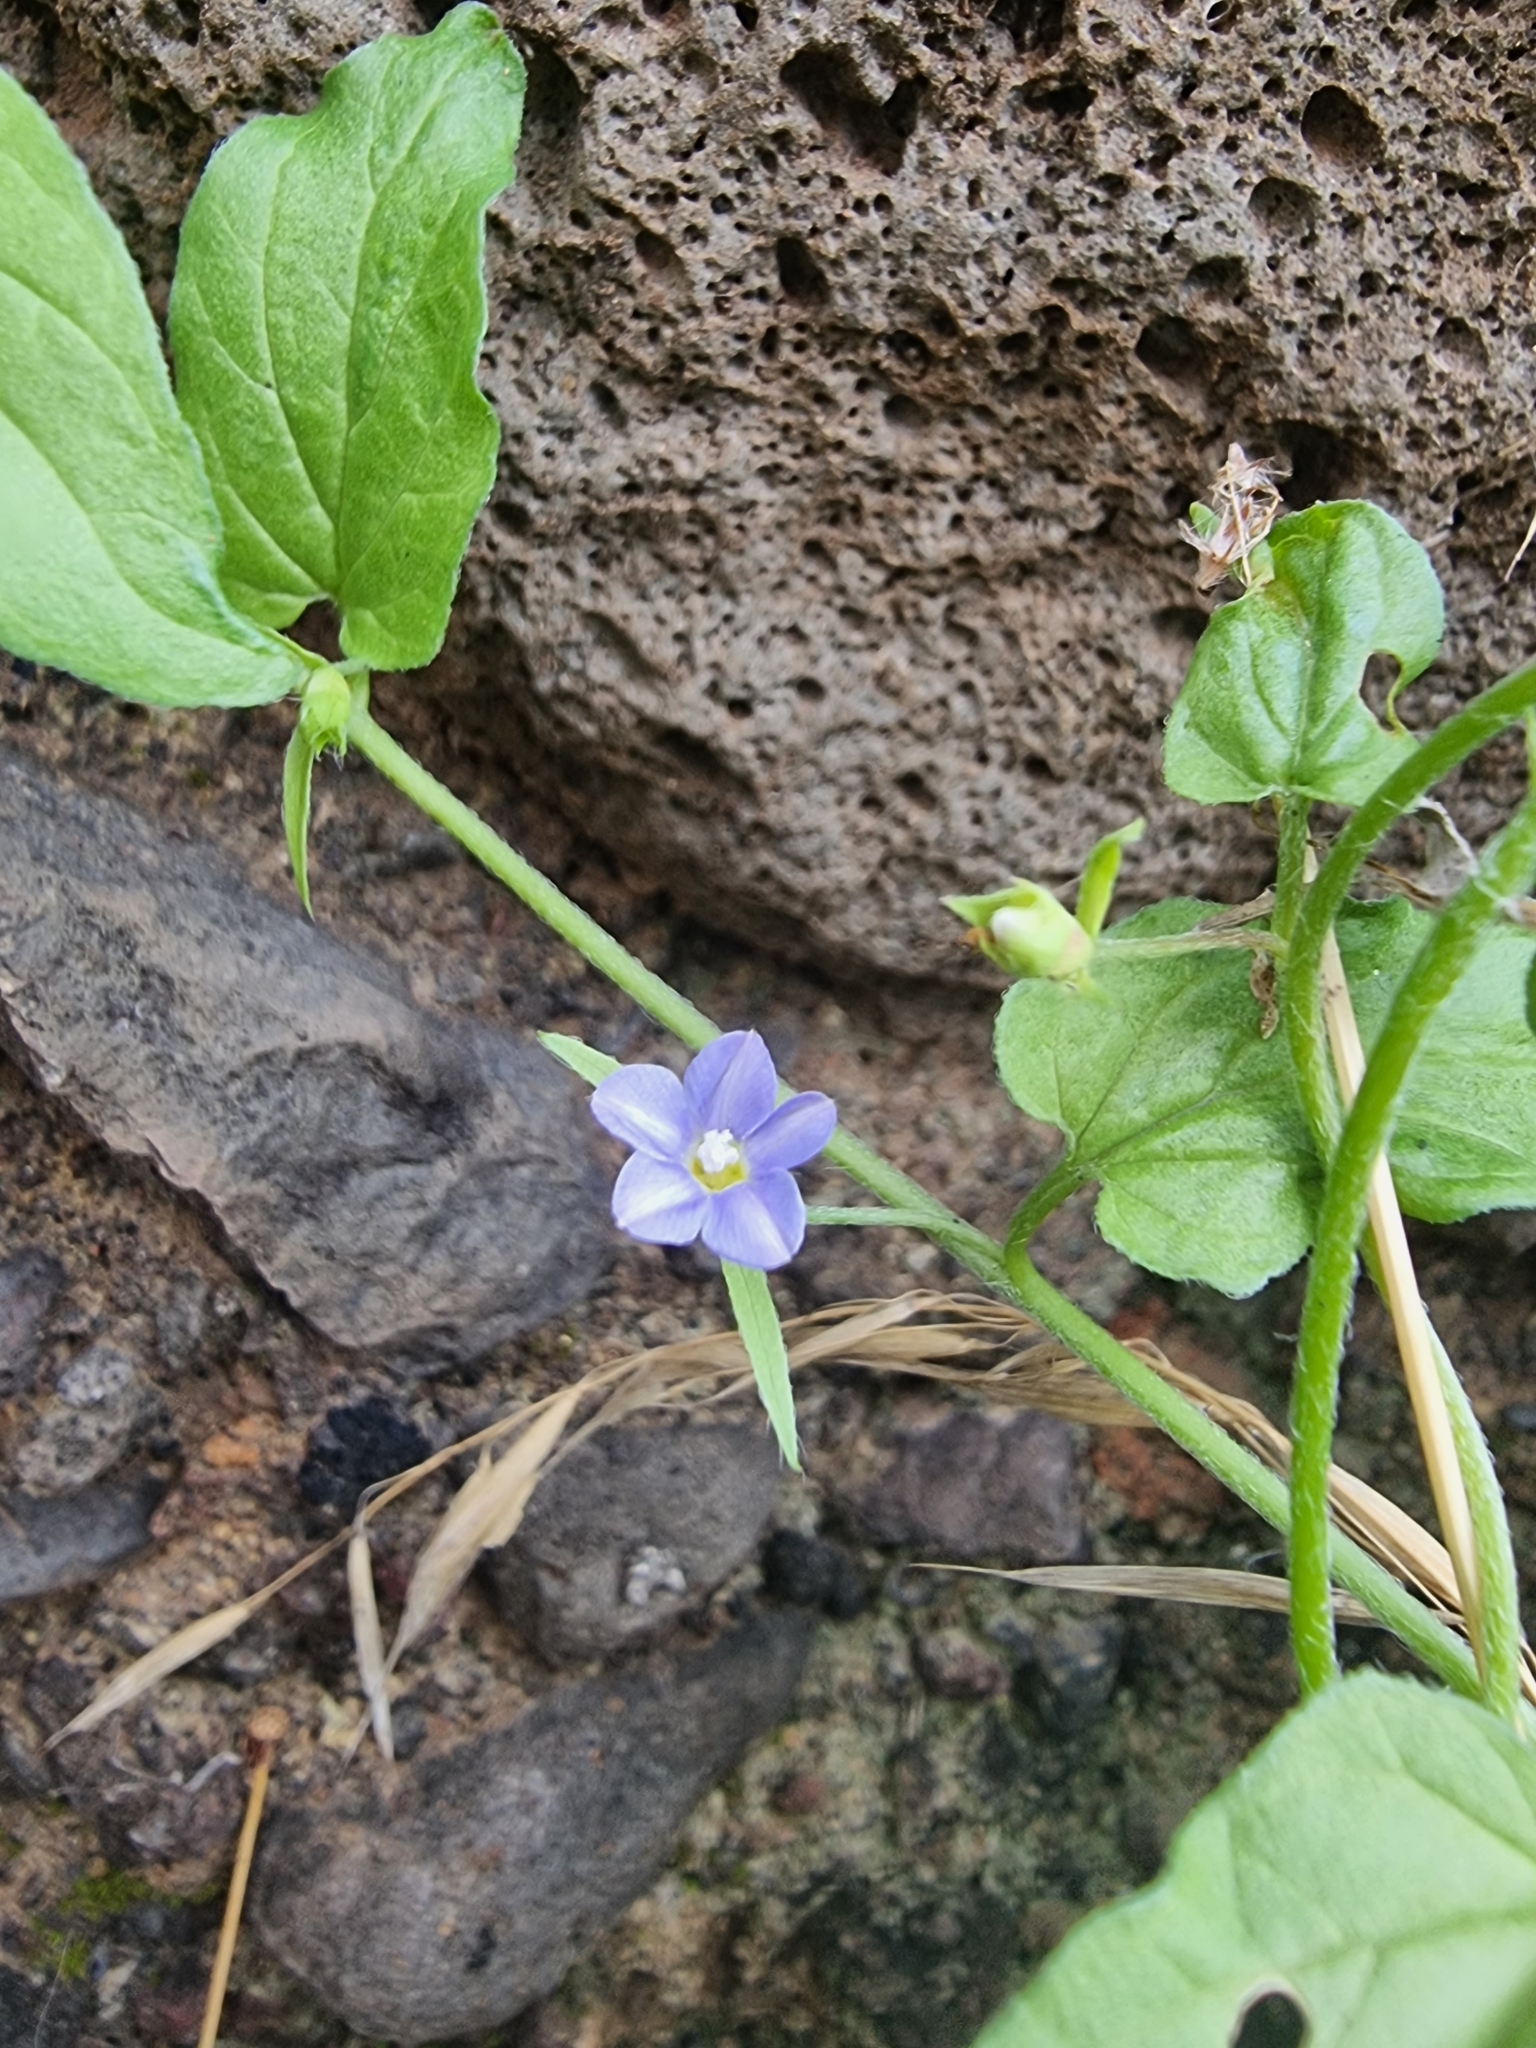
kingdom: Plantae
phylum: Tracheophyta
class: Magnoliopsida
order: Solanales
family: Convolvulaceae
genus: Convolvulus
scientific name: Convolvulus siculus
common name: Small blue-convolvulus
